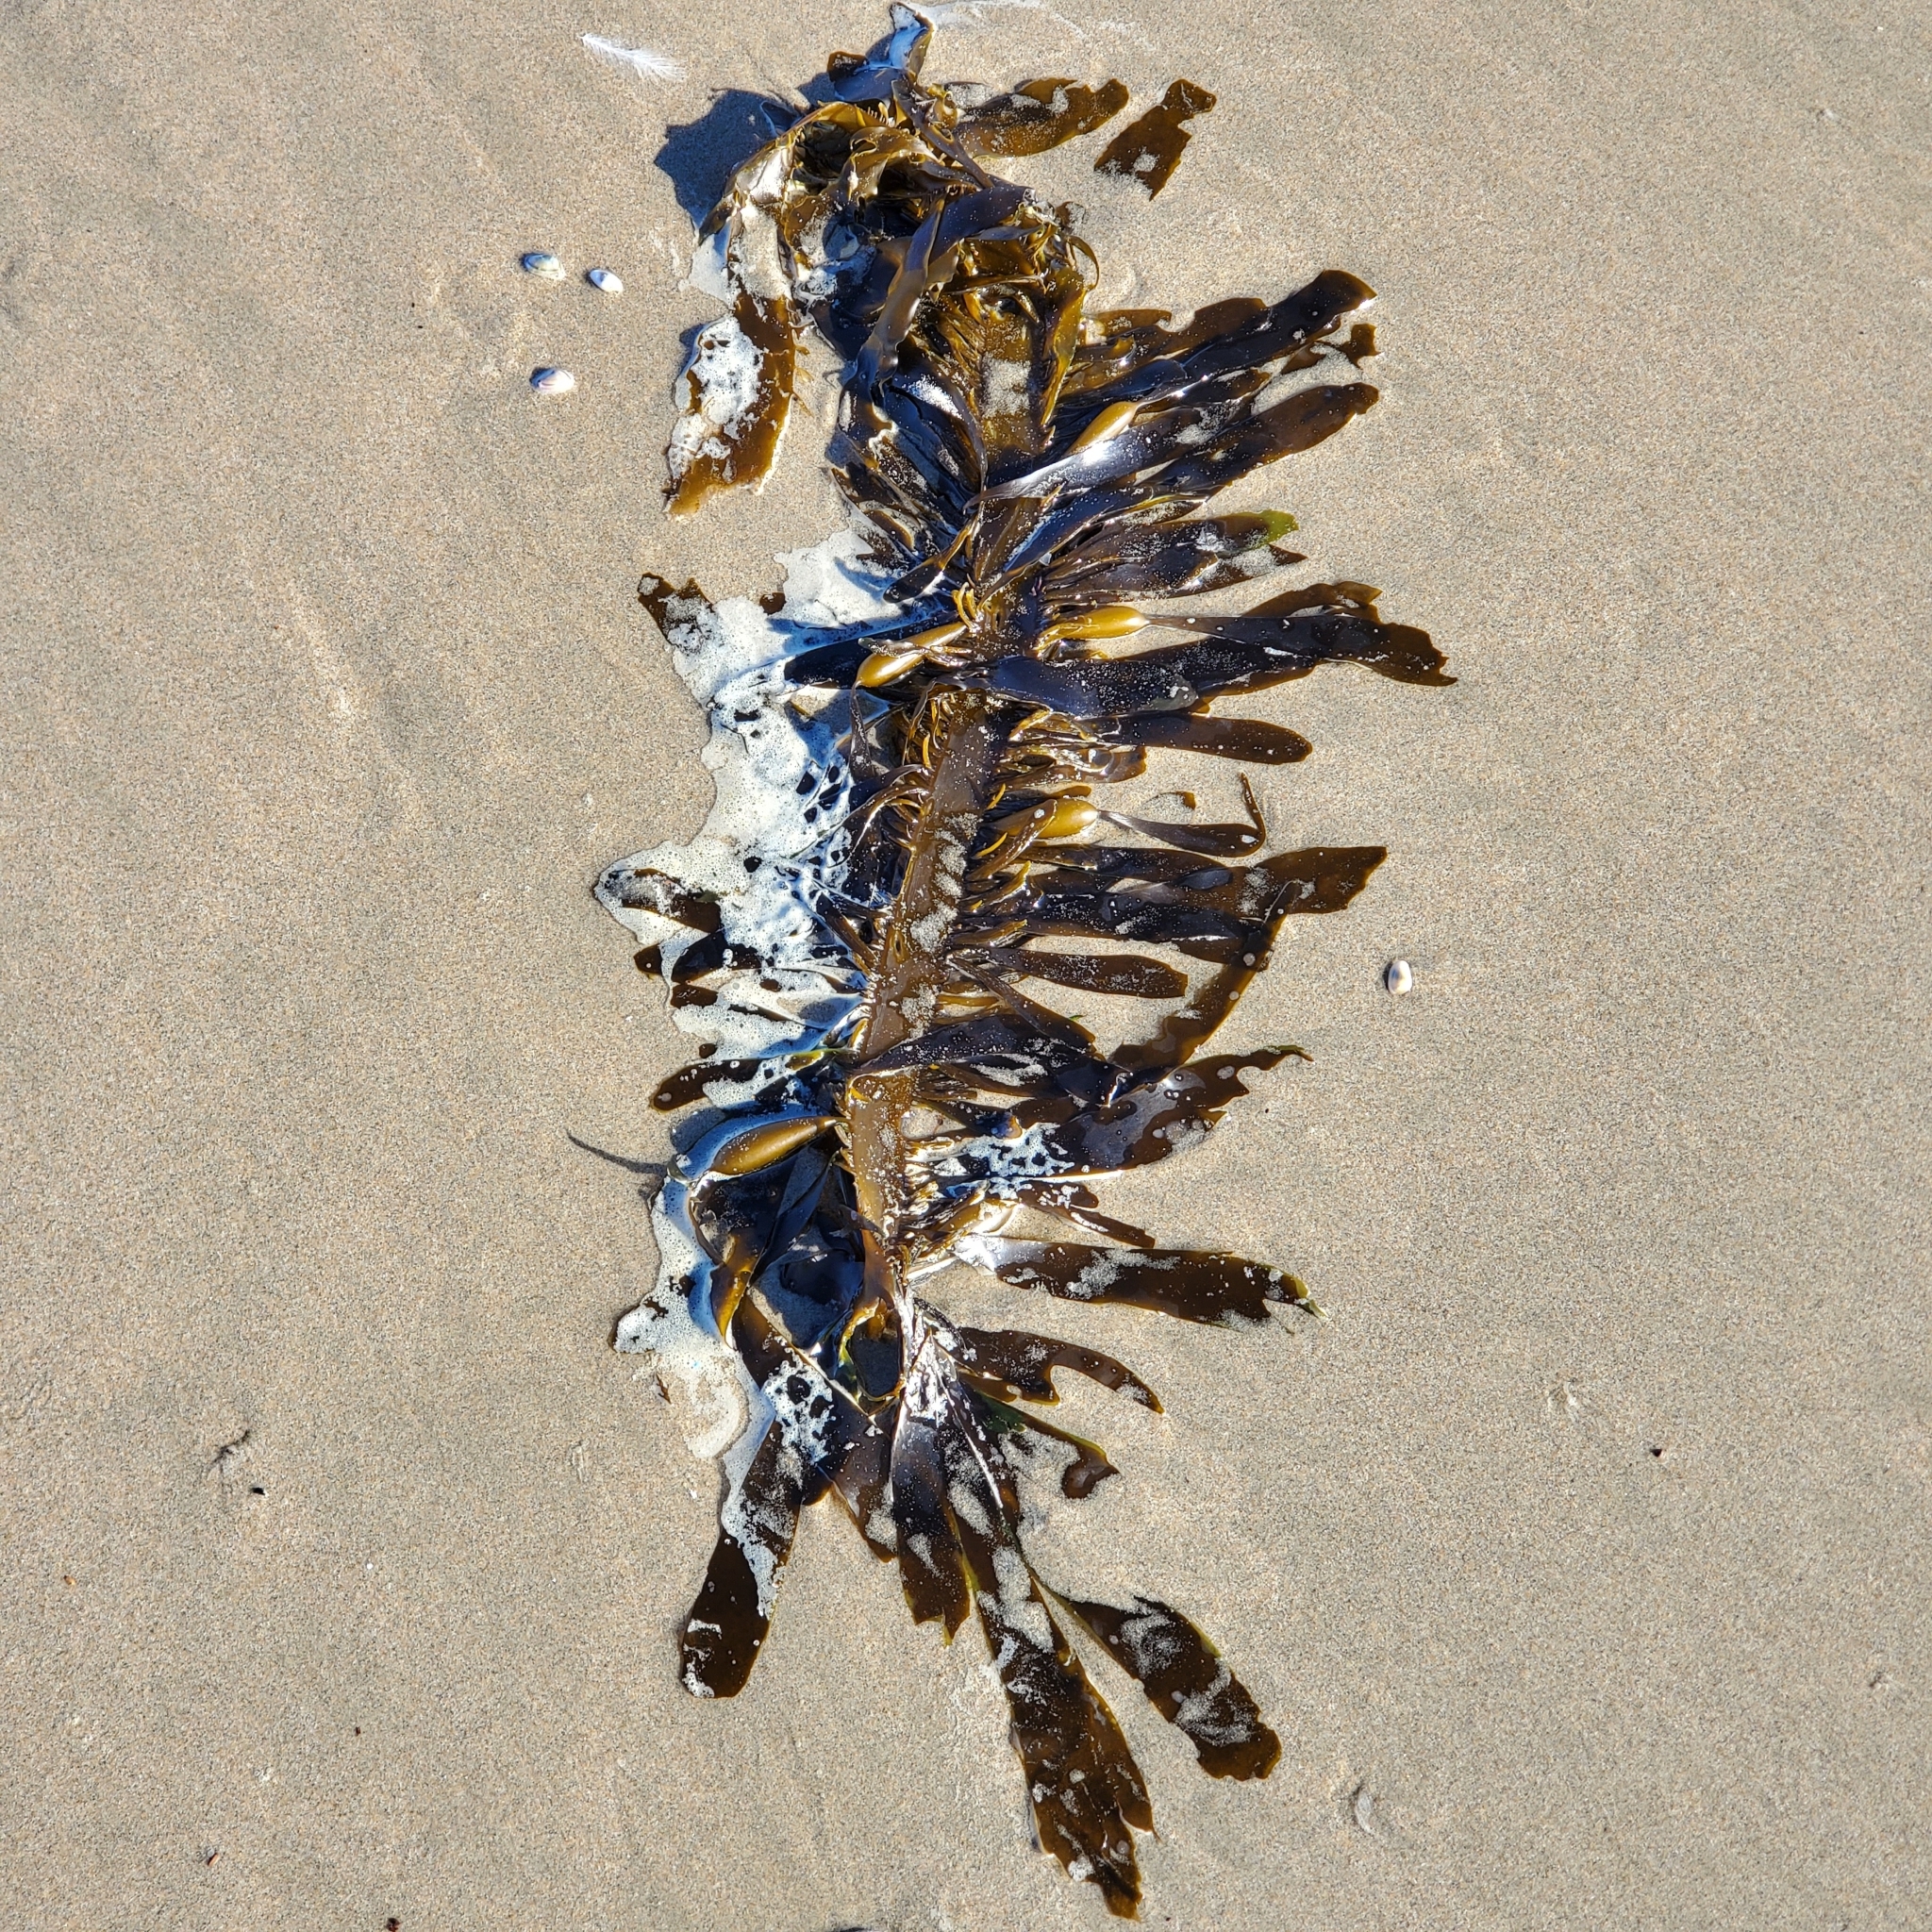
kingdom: Chromista
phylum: Ochrophyta
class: Phaeophyceae
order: Laminariales
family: Lessoniaceae
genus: Egregia
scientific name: Egregia menziesii
